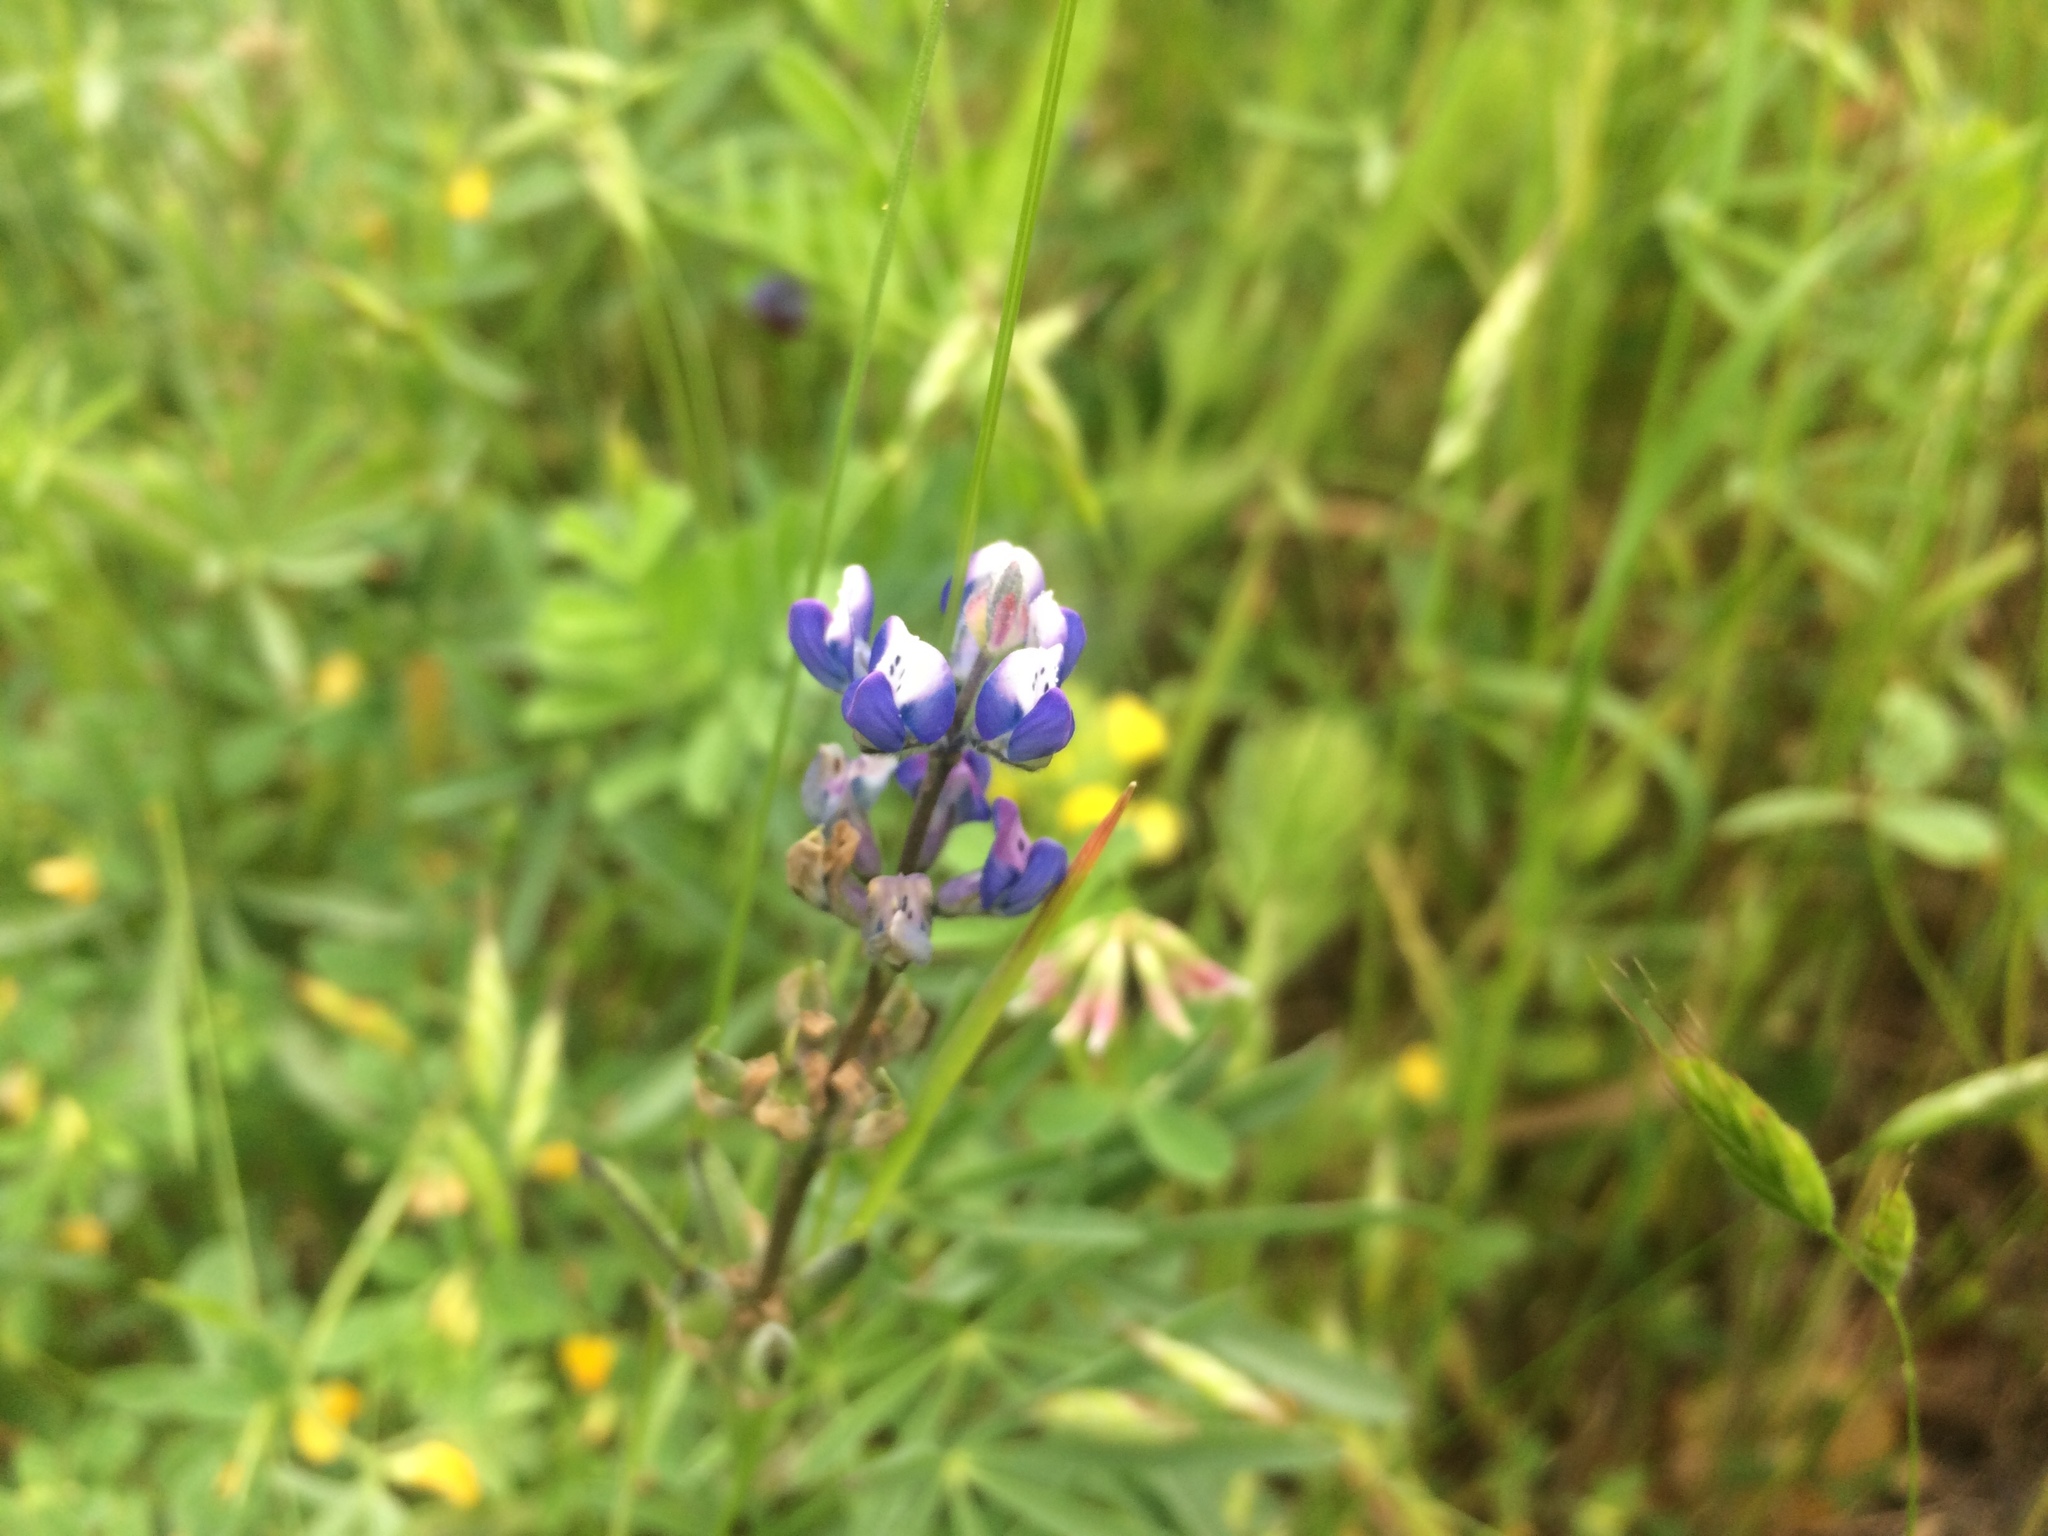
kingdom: Plantae
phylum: Tracheophyta
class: Magnoliopsida
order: Fabales
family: Fabaceae
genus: Lupinus
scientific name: Lupinus bicolor
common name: Miniature lupine
